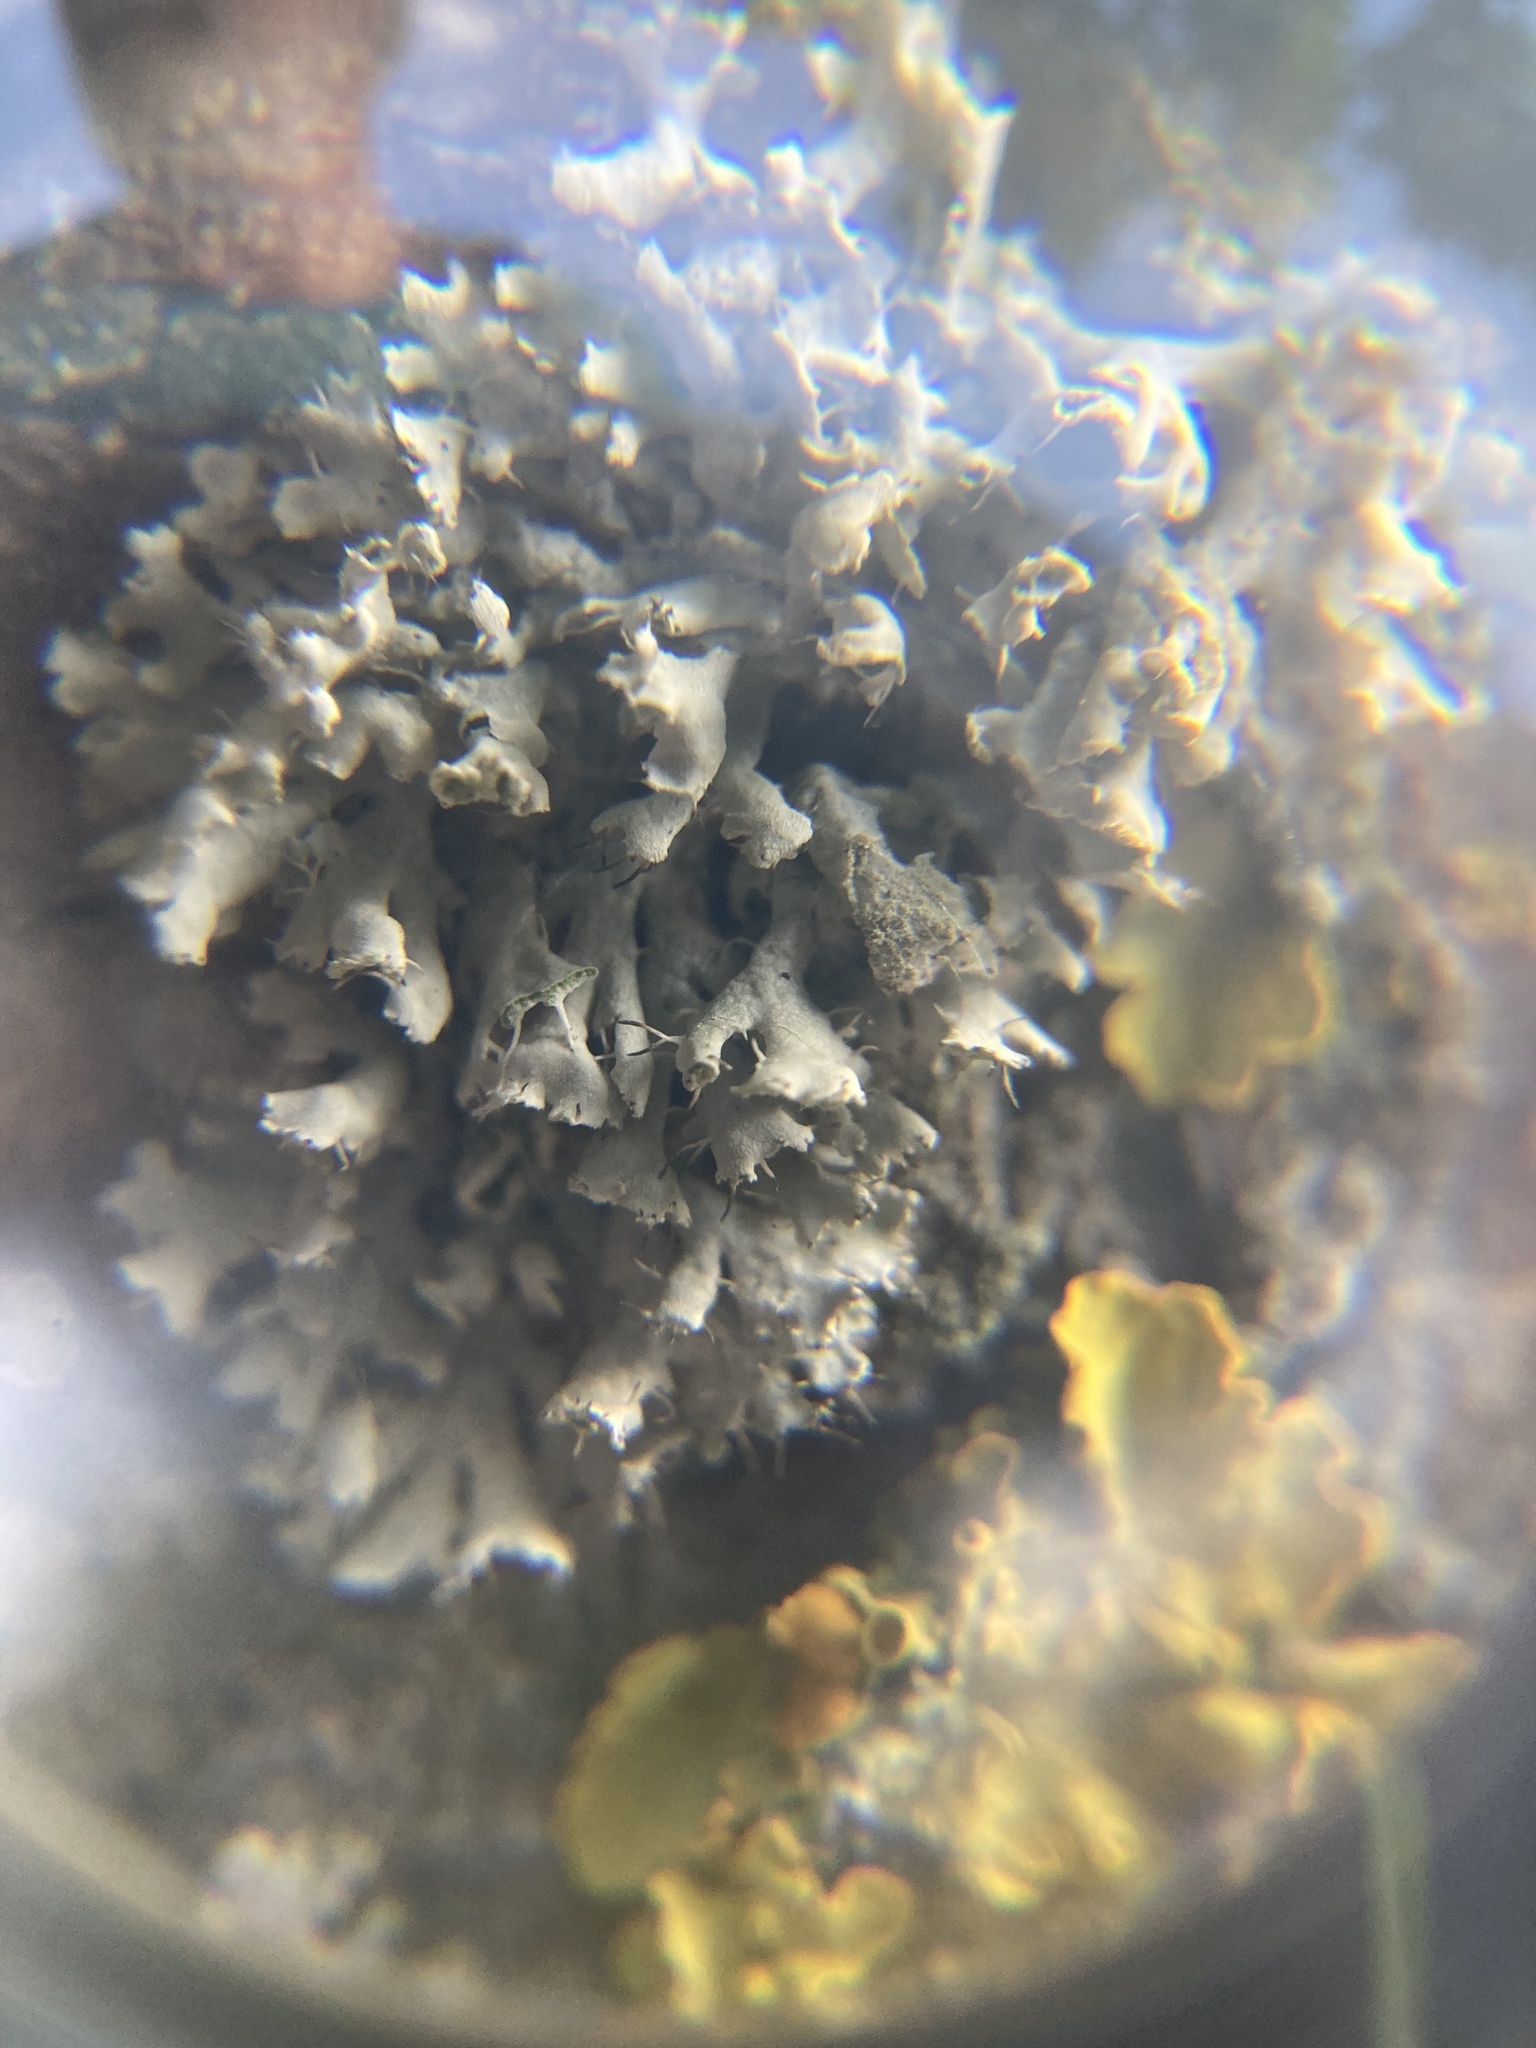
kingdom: Fungi
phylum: Ascomycota
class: Lecanoromycetes
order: Caliciales
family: Physciaceae
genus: Physcia
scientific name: Physcia adscendens
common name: Hooded rosette lichen
